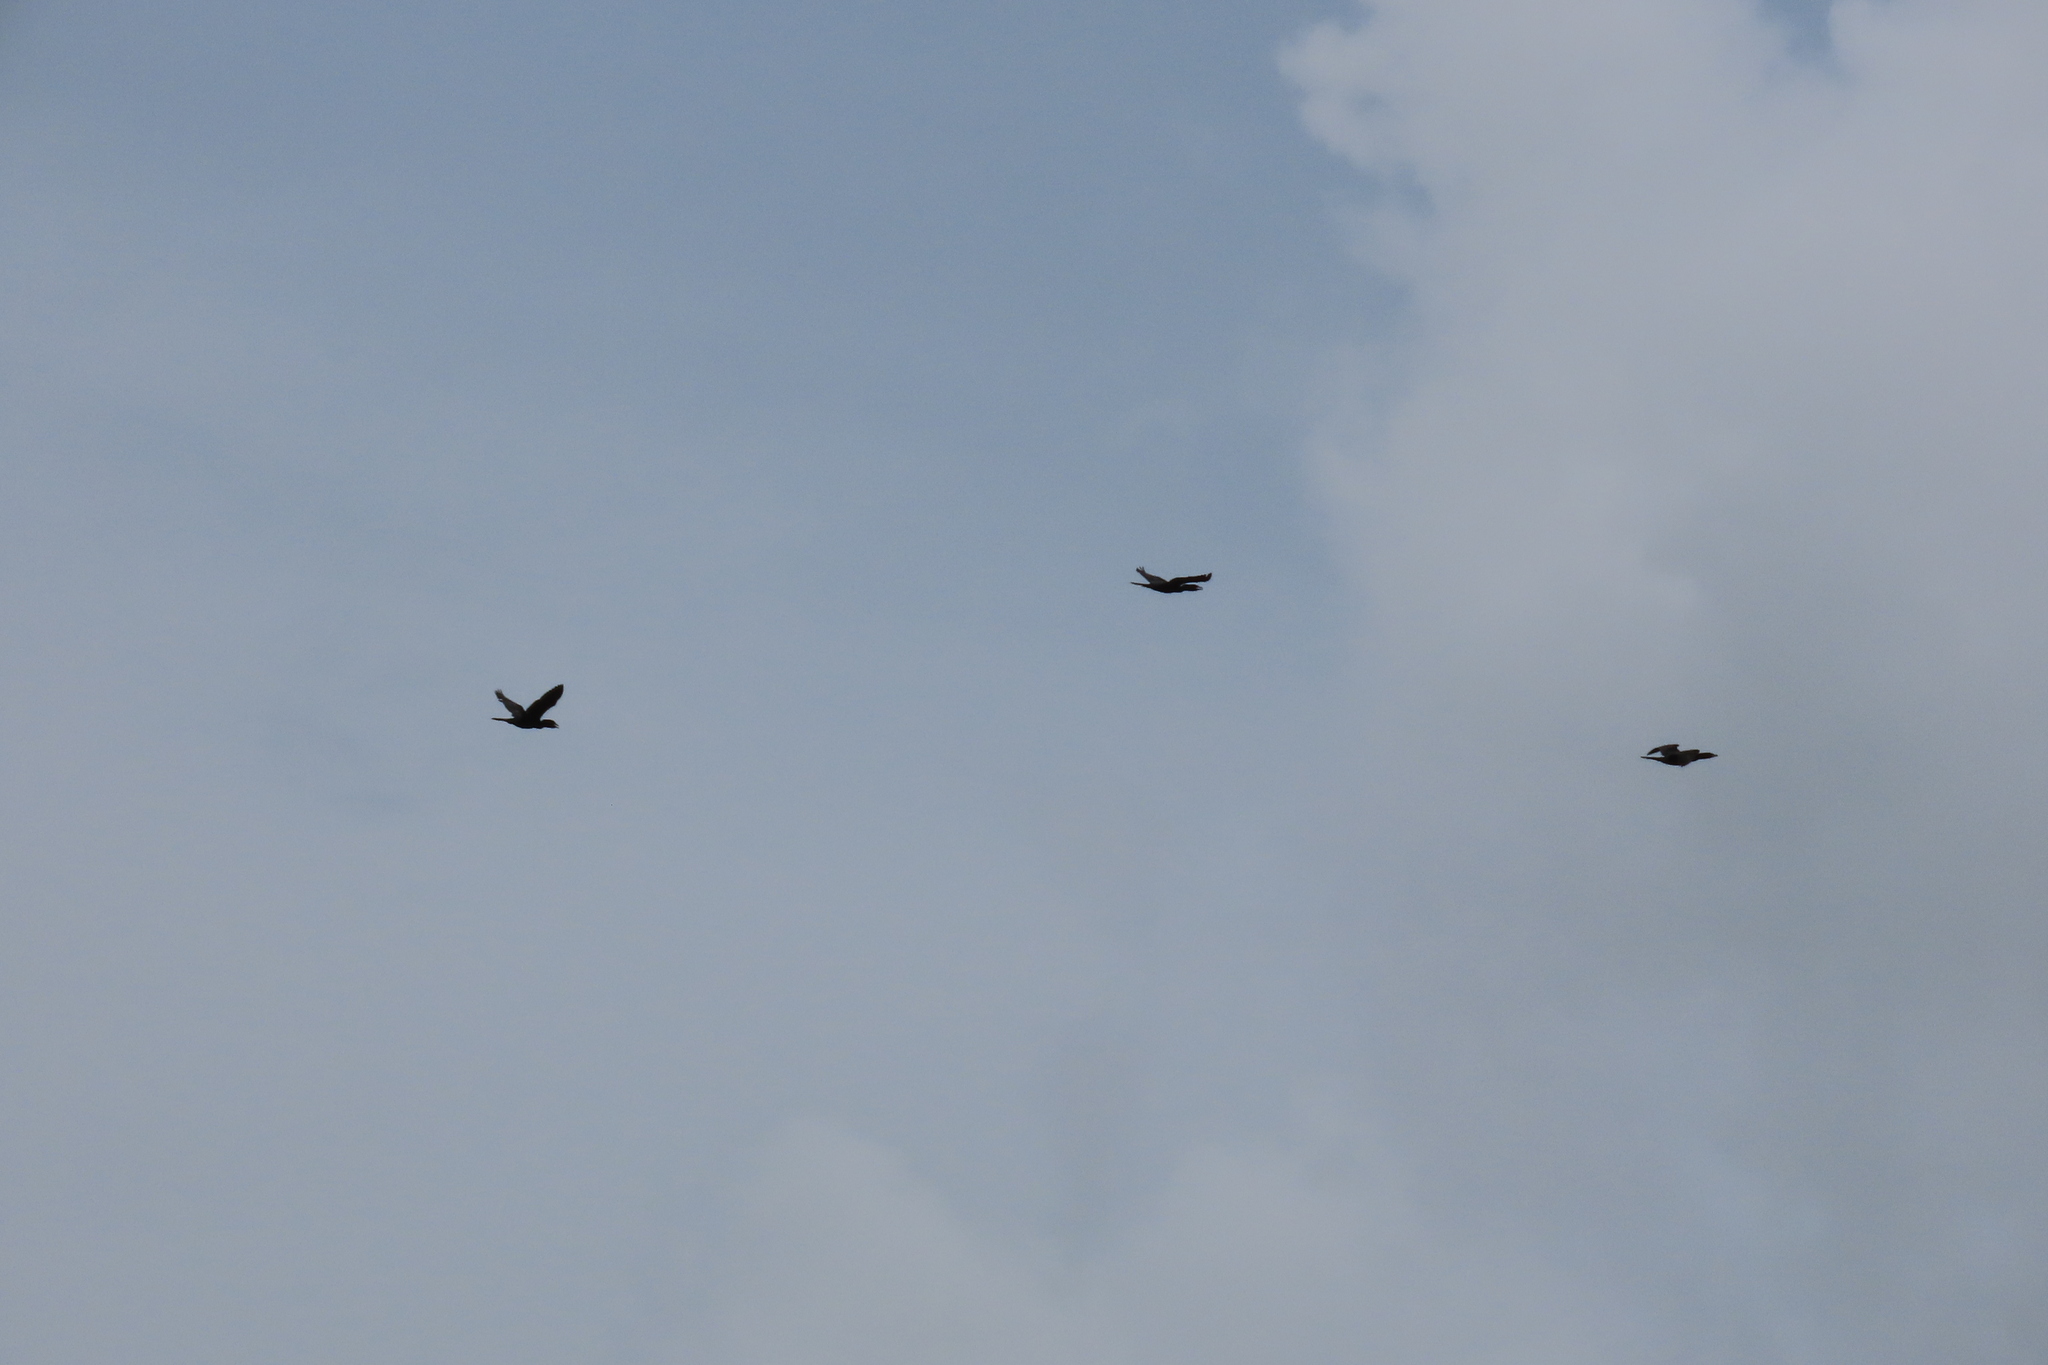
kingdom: Animalia
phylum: Chordata
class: Aves
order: Suliformes
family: Phalacrocoracidae
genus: Microcarbo
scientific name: Microcarbo niger
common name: Little cormorant
